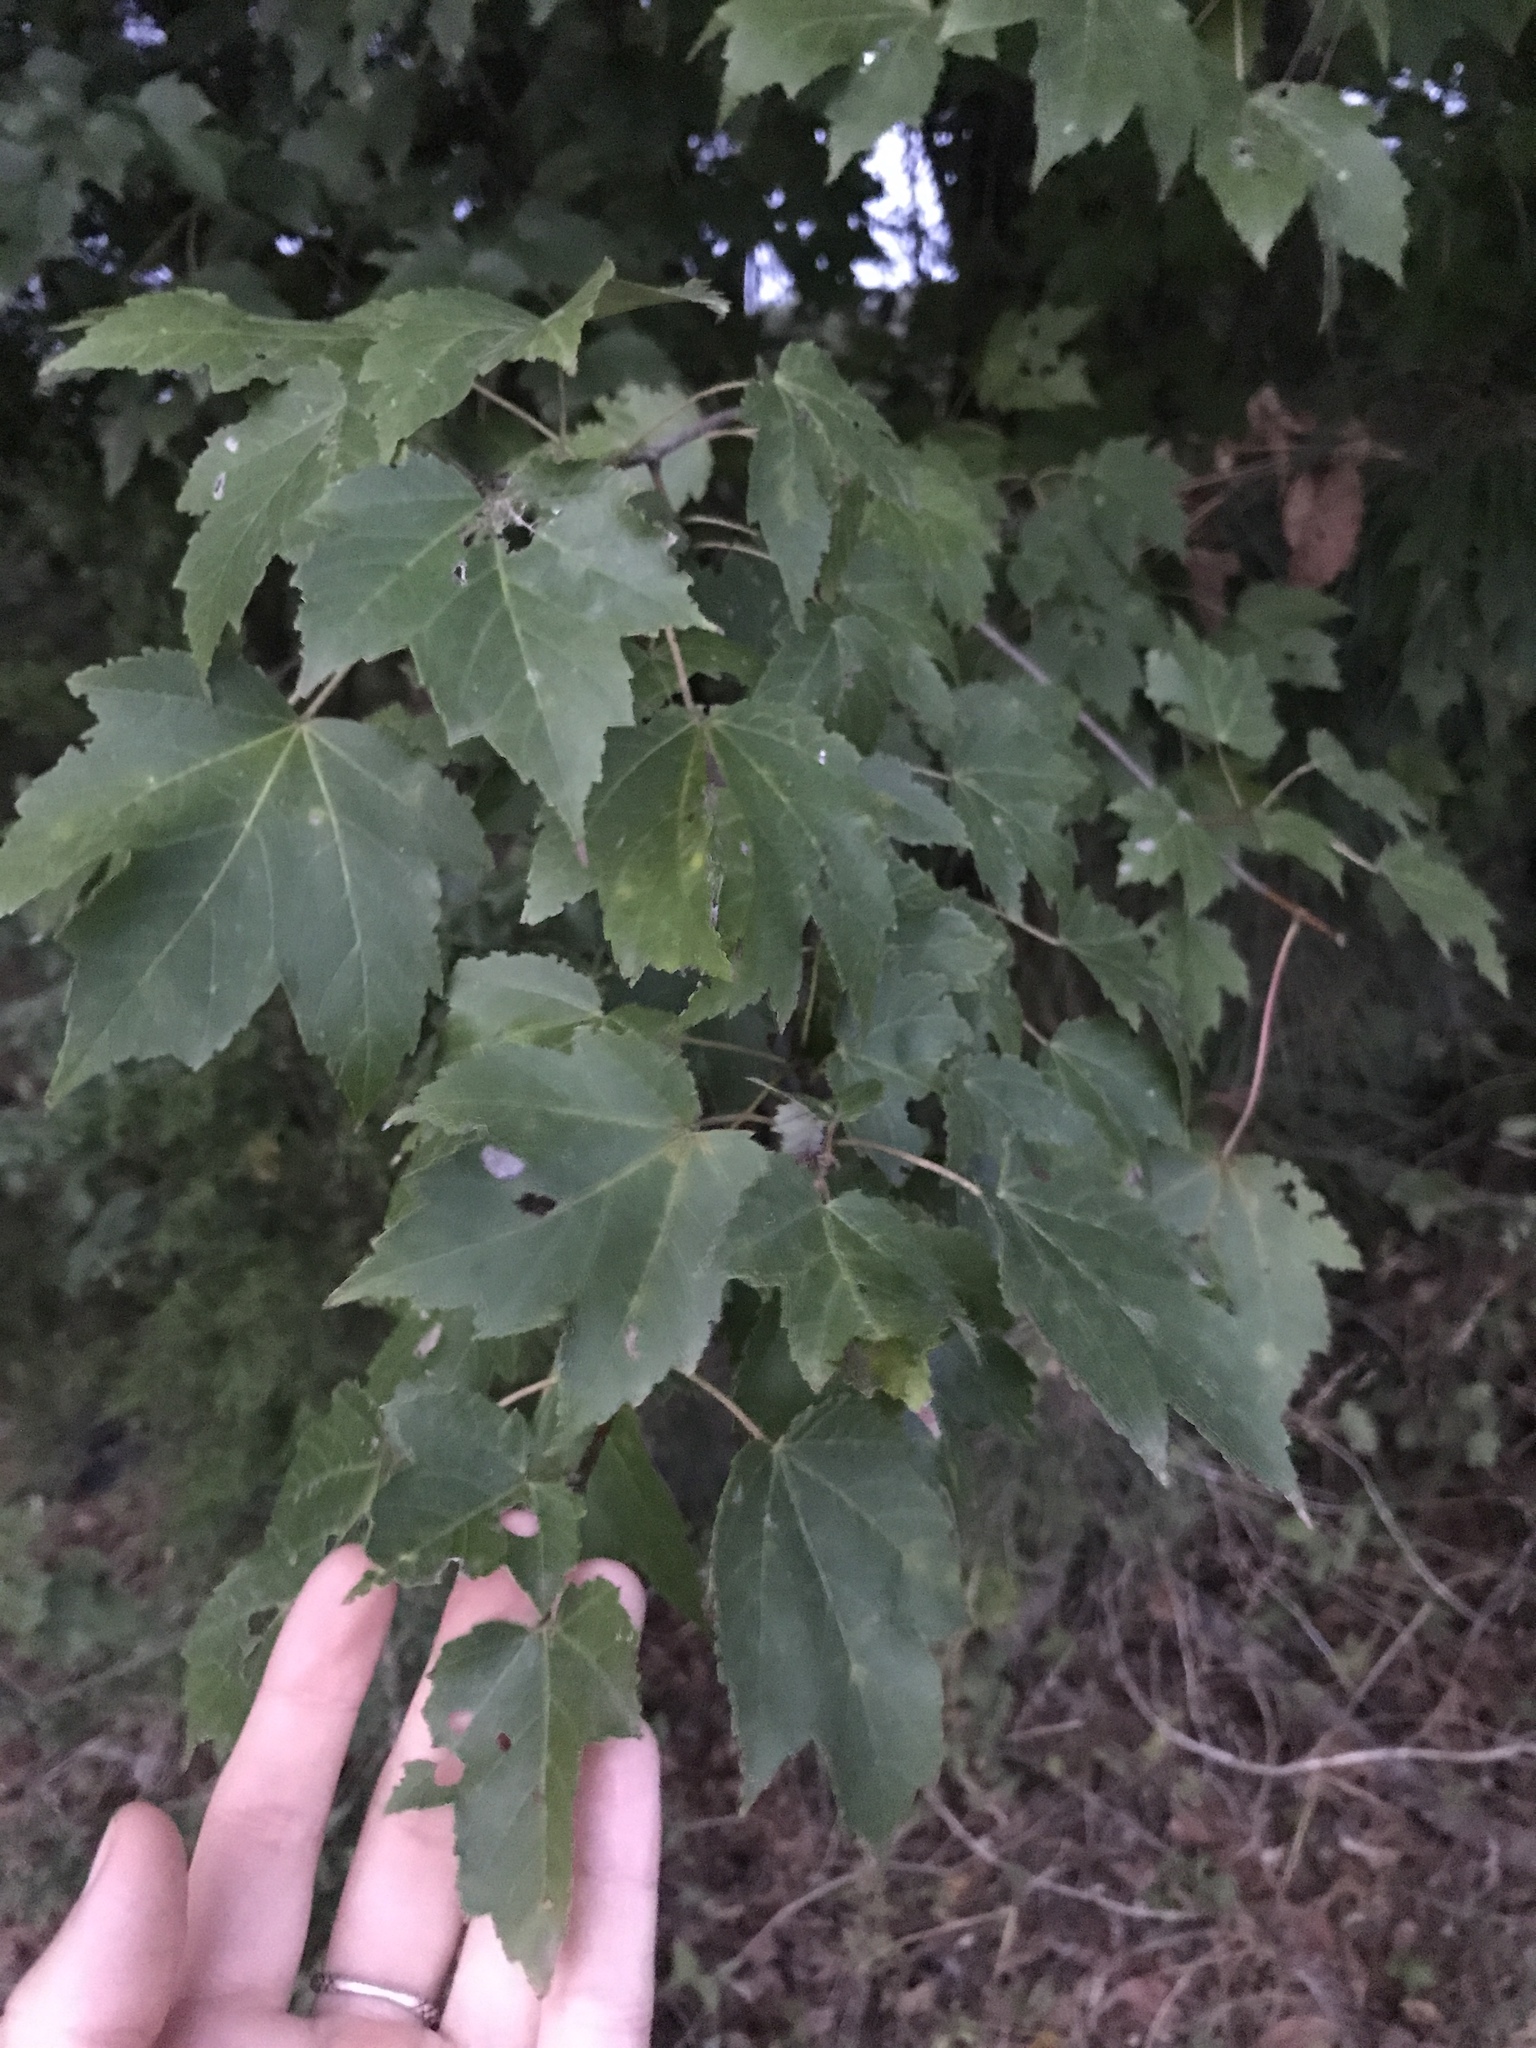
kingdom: Plantae
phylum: Tracheophyta
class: Magnoliopsida
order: Sapindales
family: Sapindaceae
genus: Acer
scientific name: Acer rubrum
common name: Red maple
